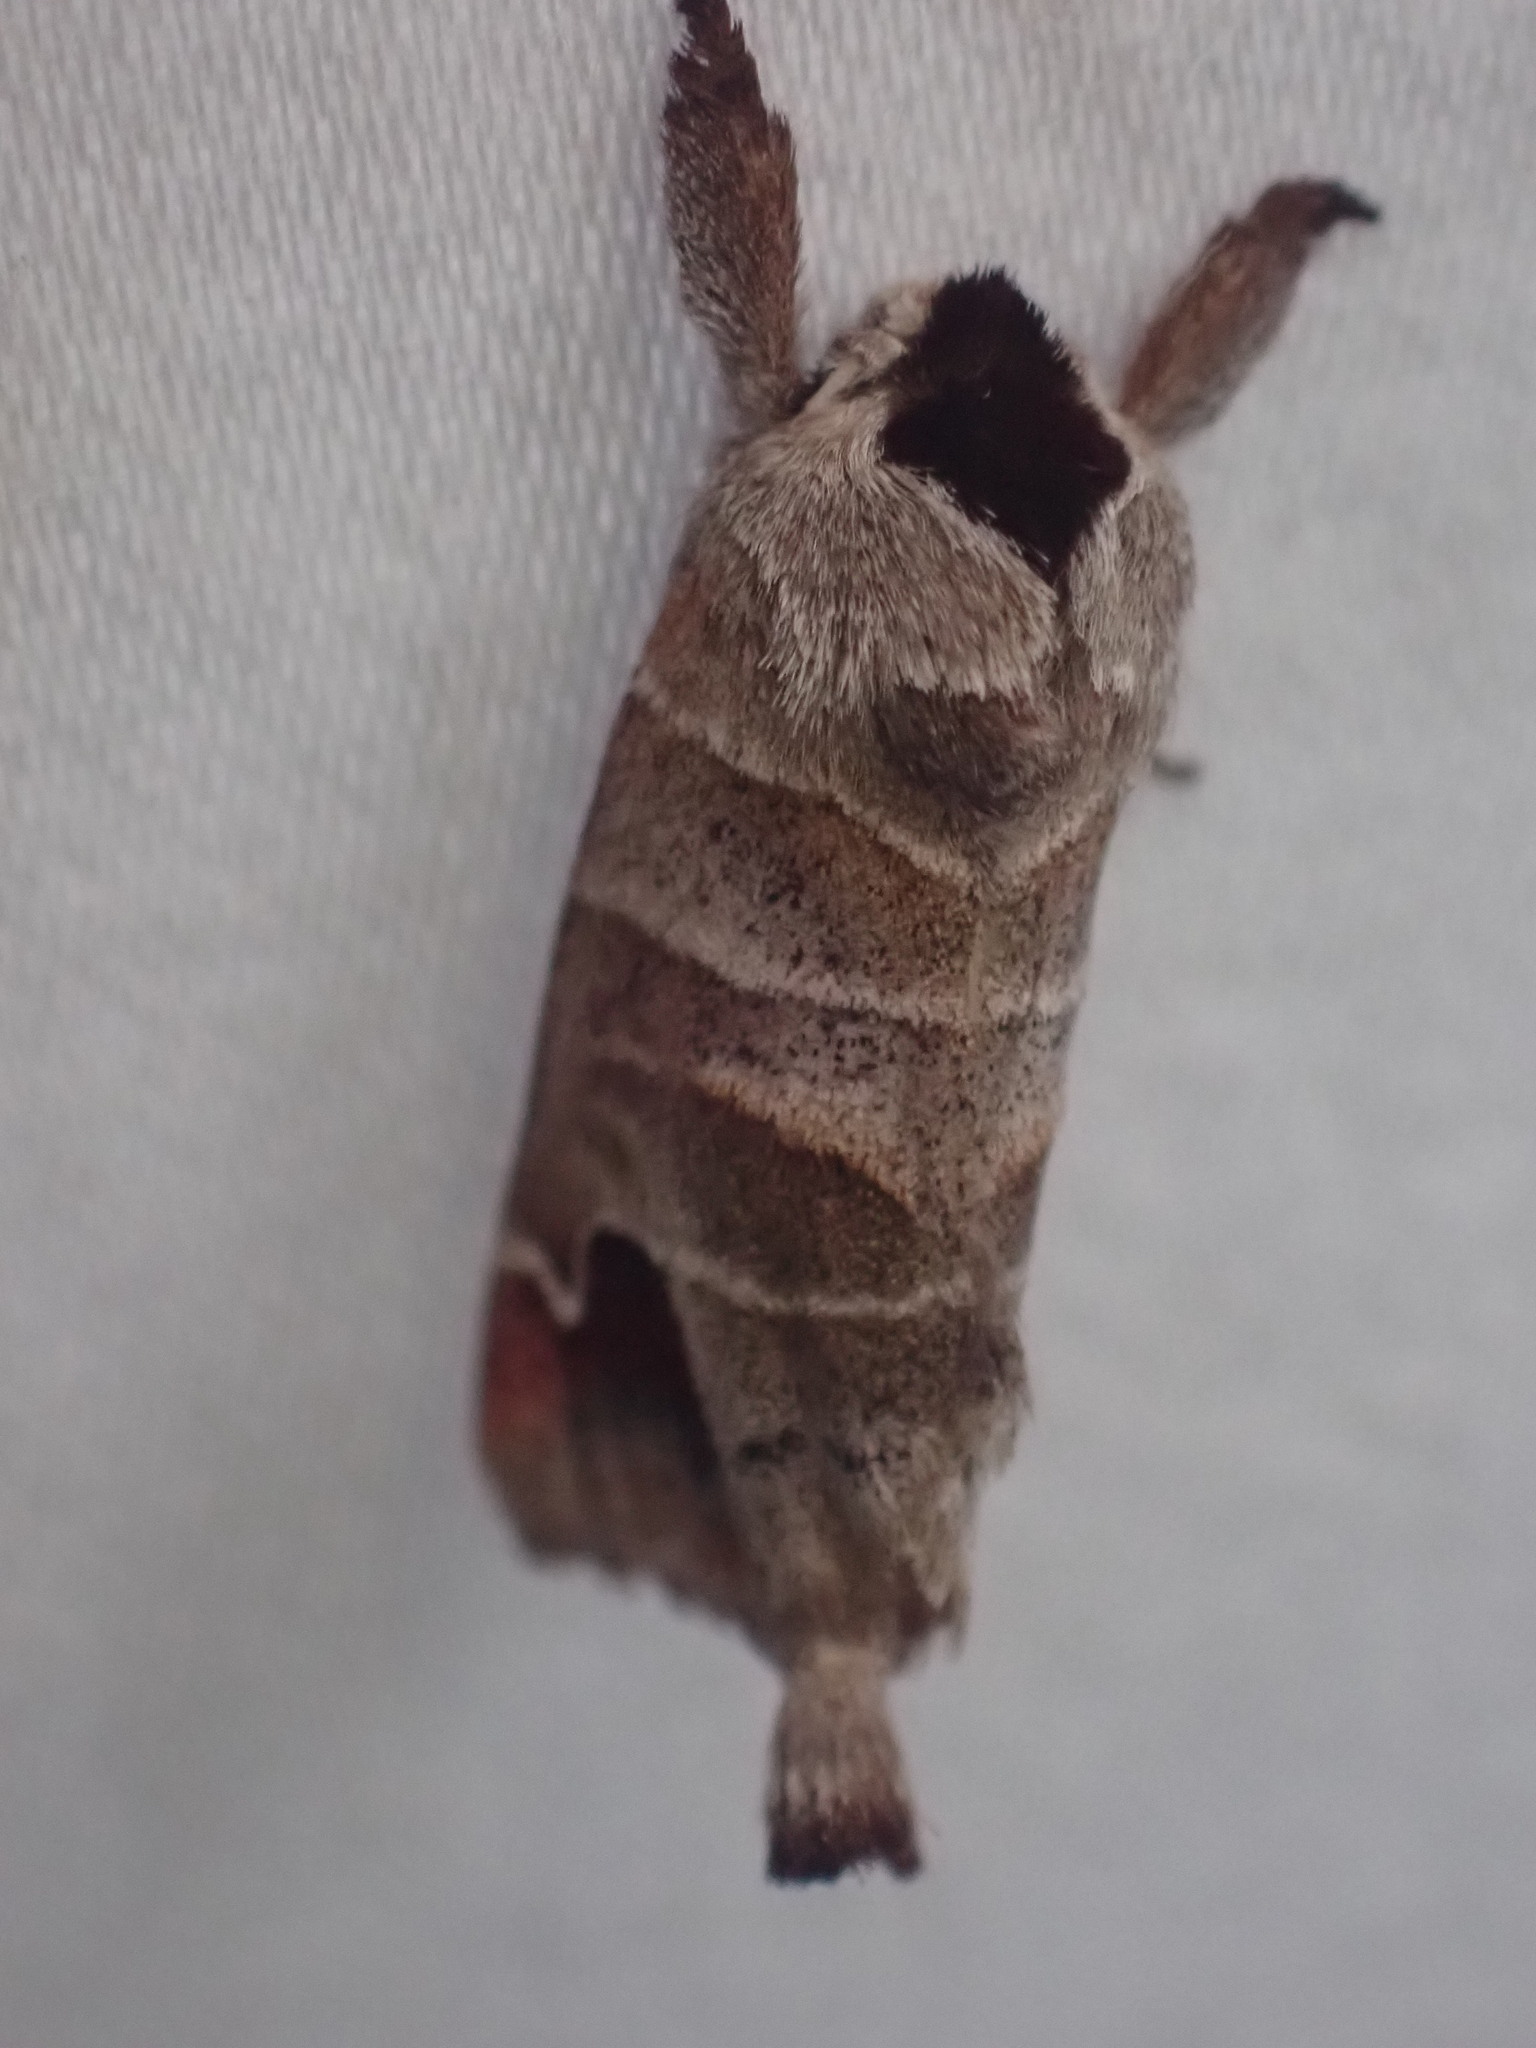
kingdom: Animalia
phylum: Arthropoda
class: Insecta
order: Lepidoptera
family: Notodontidae
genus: Clostera
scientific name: Clostera albosigma
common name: Sigmoid prominent
